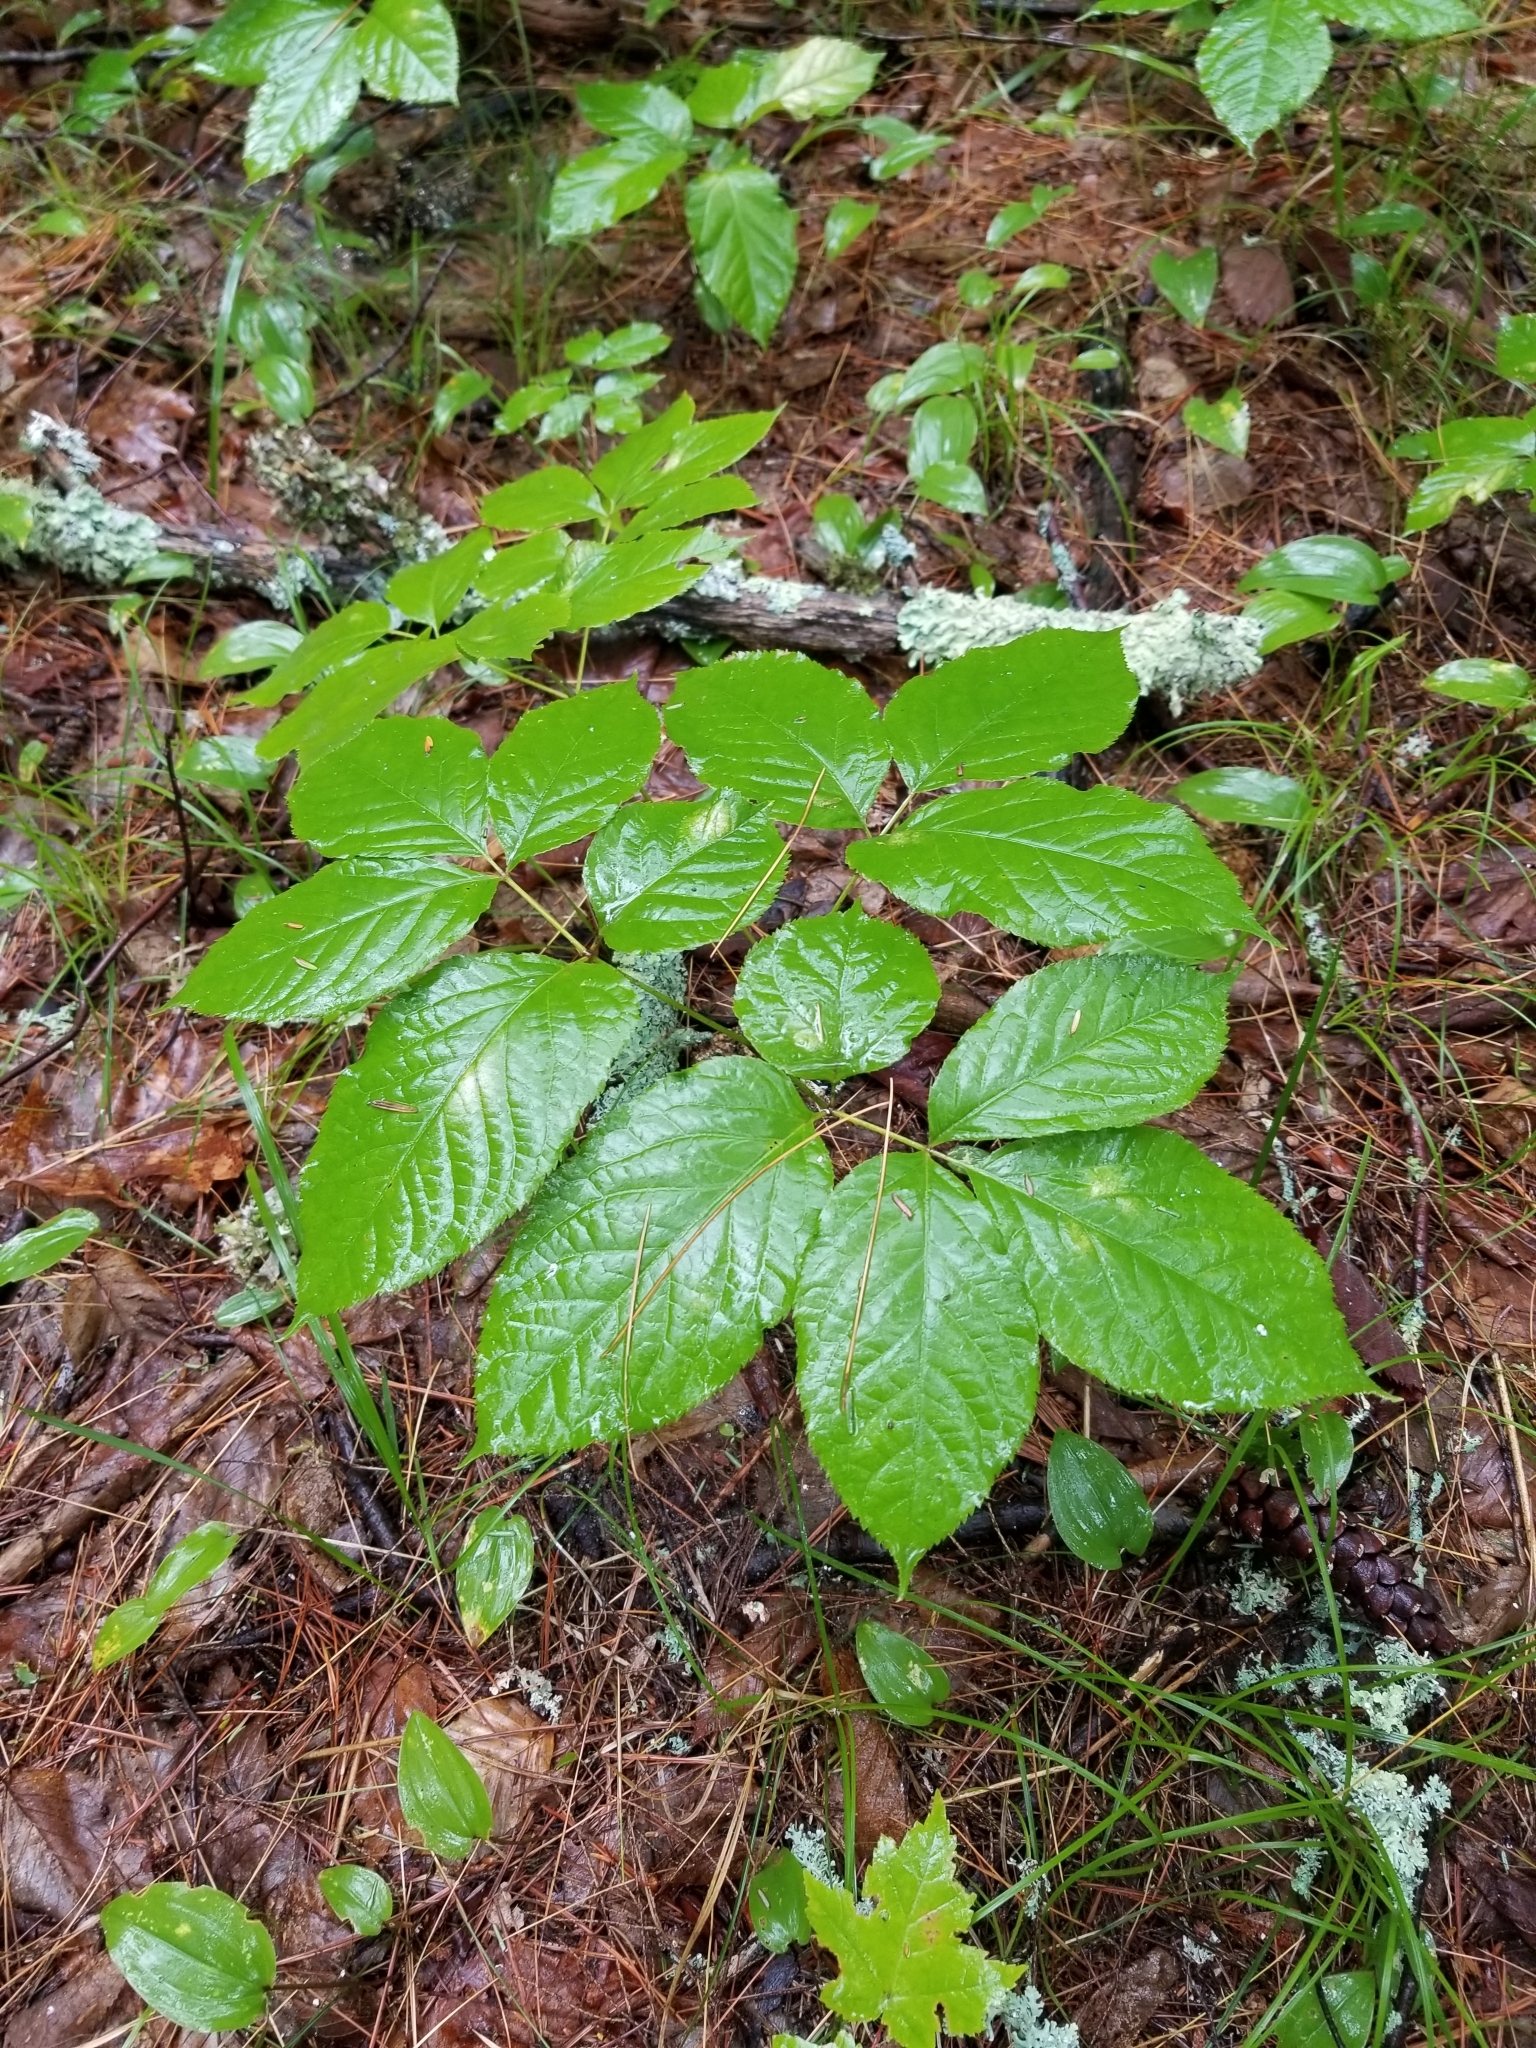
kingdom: Plantae
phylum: Tracheophyta
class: Magnoliopsida
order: Apiales
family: Araliaceae
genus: Aralia
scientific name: Aralia nudicaulis
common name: Wild sarsaparilla
